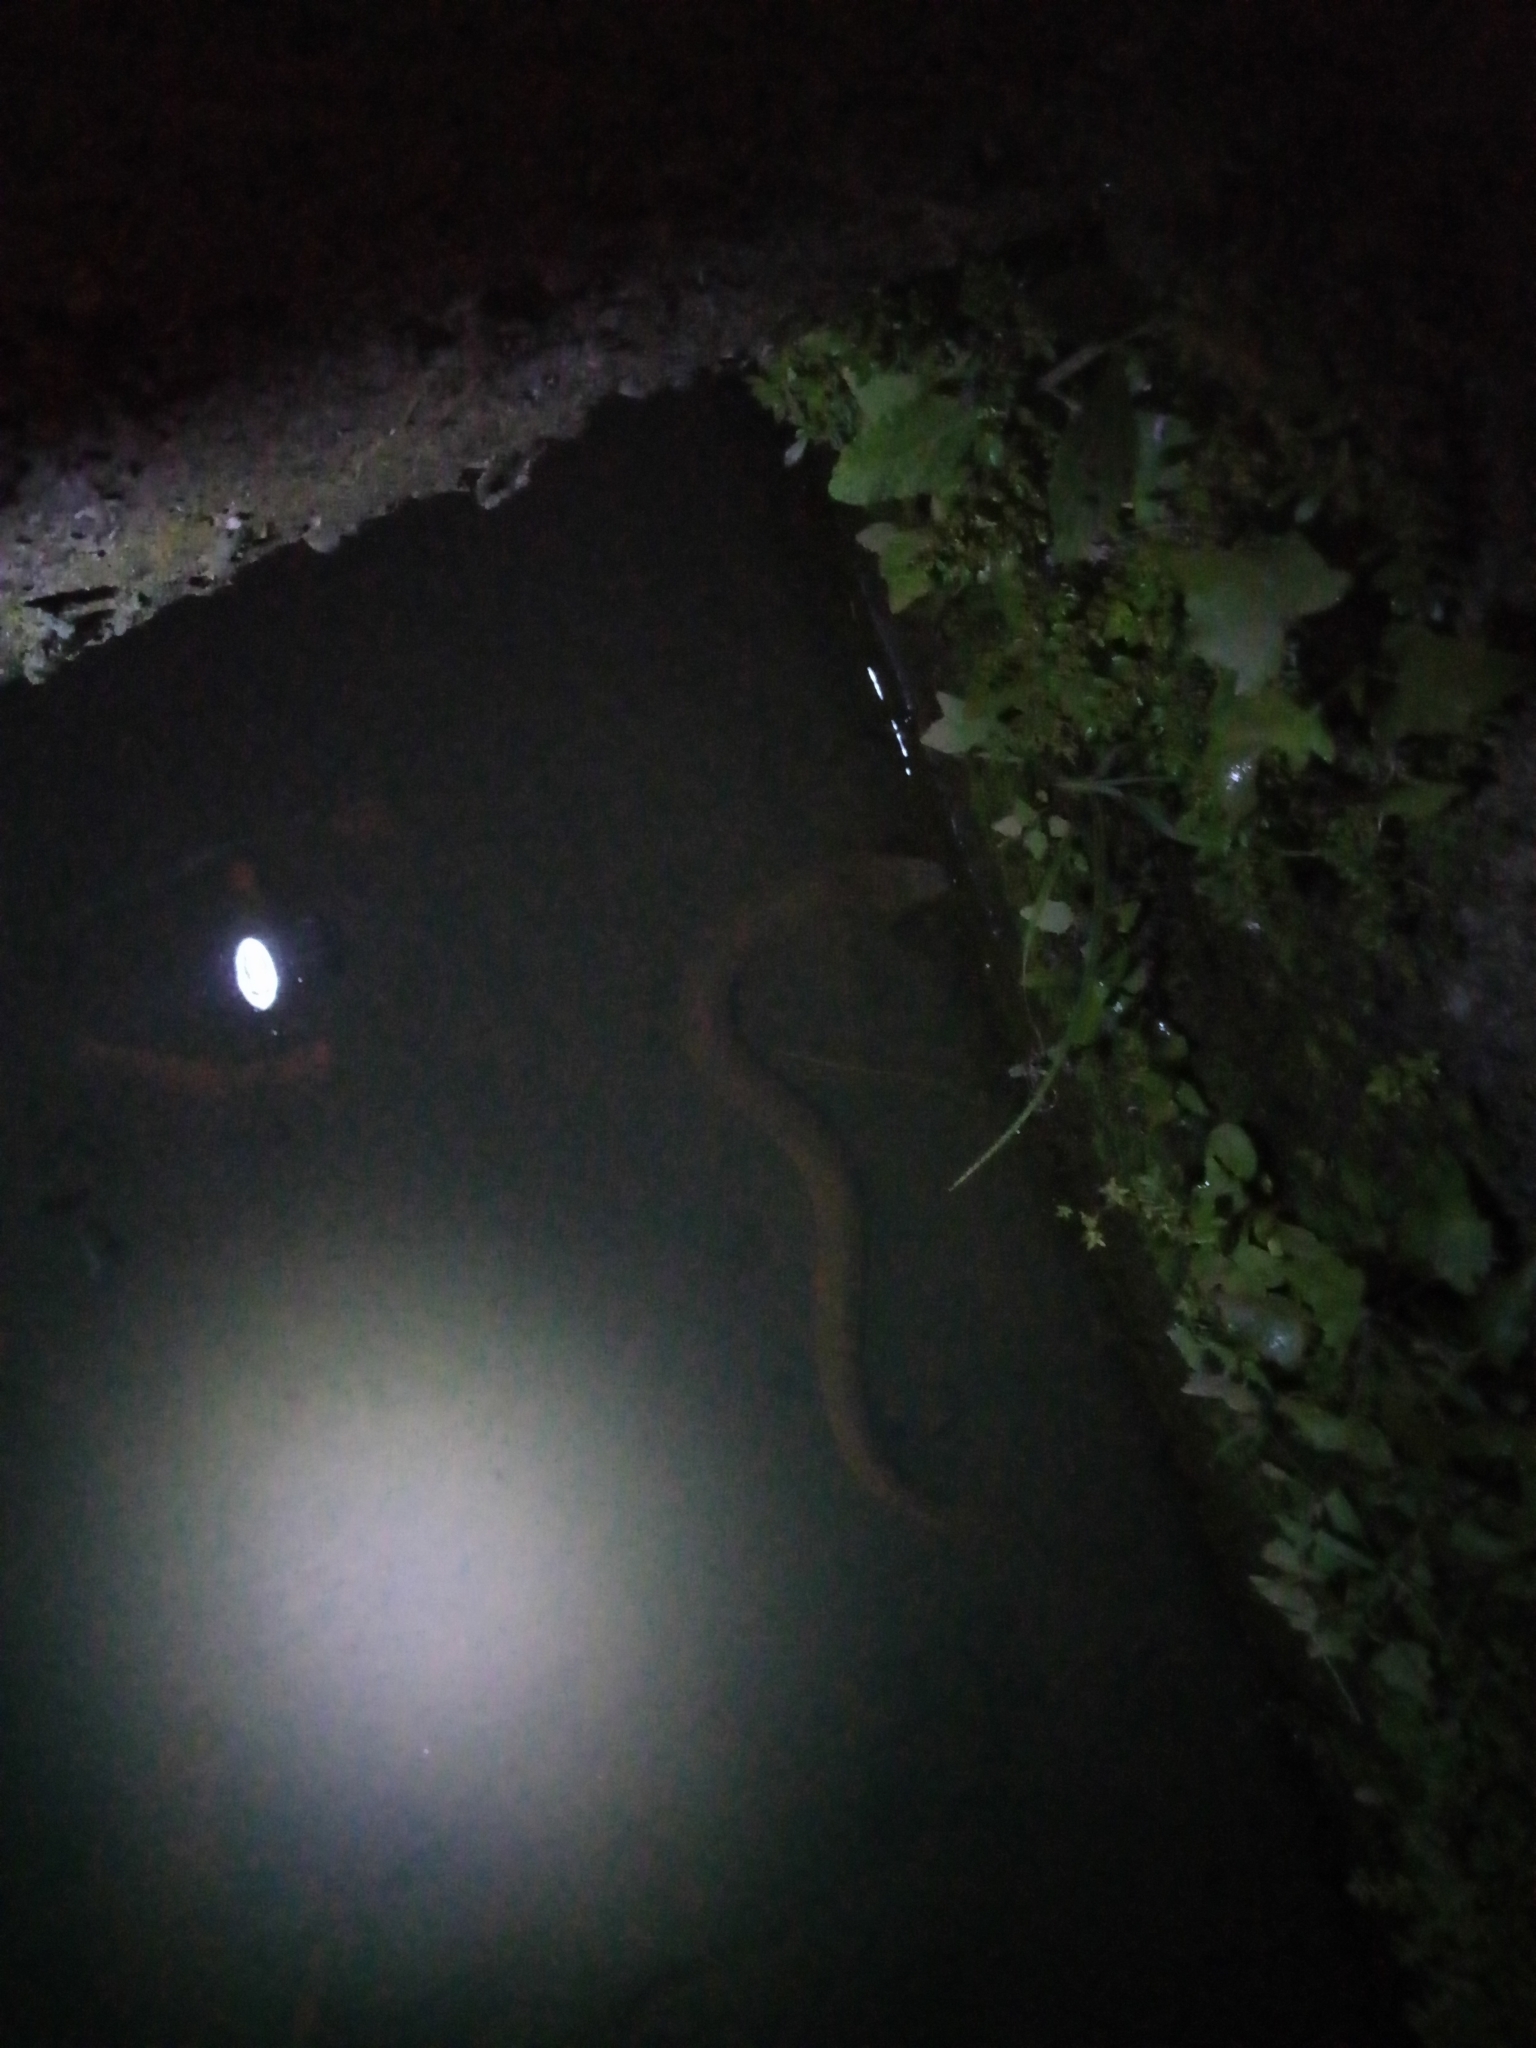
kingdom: Animalia
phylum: Chordata
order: Synbranchiformes
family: Synbranchidae
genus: Monopterus
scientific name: Monopterus albus
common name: Asian swamp eel
